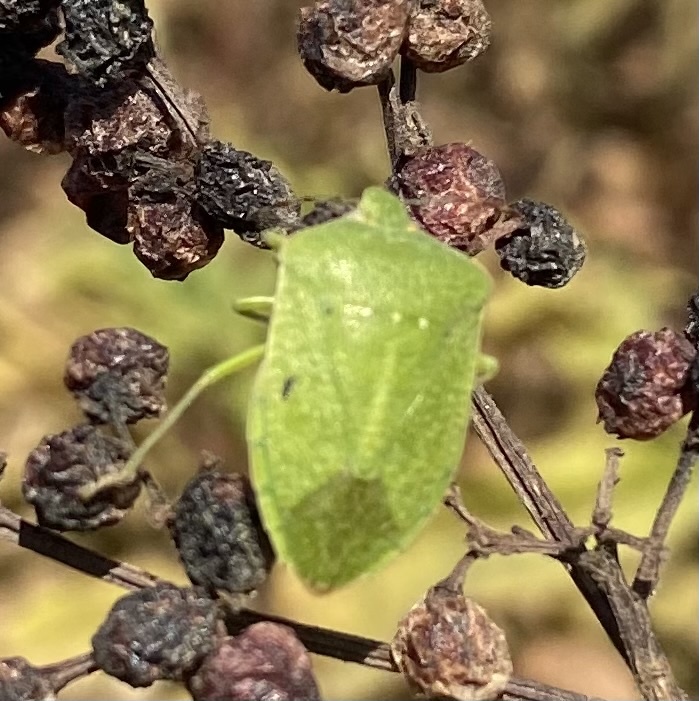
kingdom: Animalia
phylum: Arthropoda
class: Insecta
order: Hemiptera
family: Pentatomidae
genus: Nezara
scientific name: Nezara viridula
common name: Southern green stink bug
